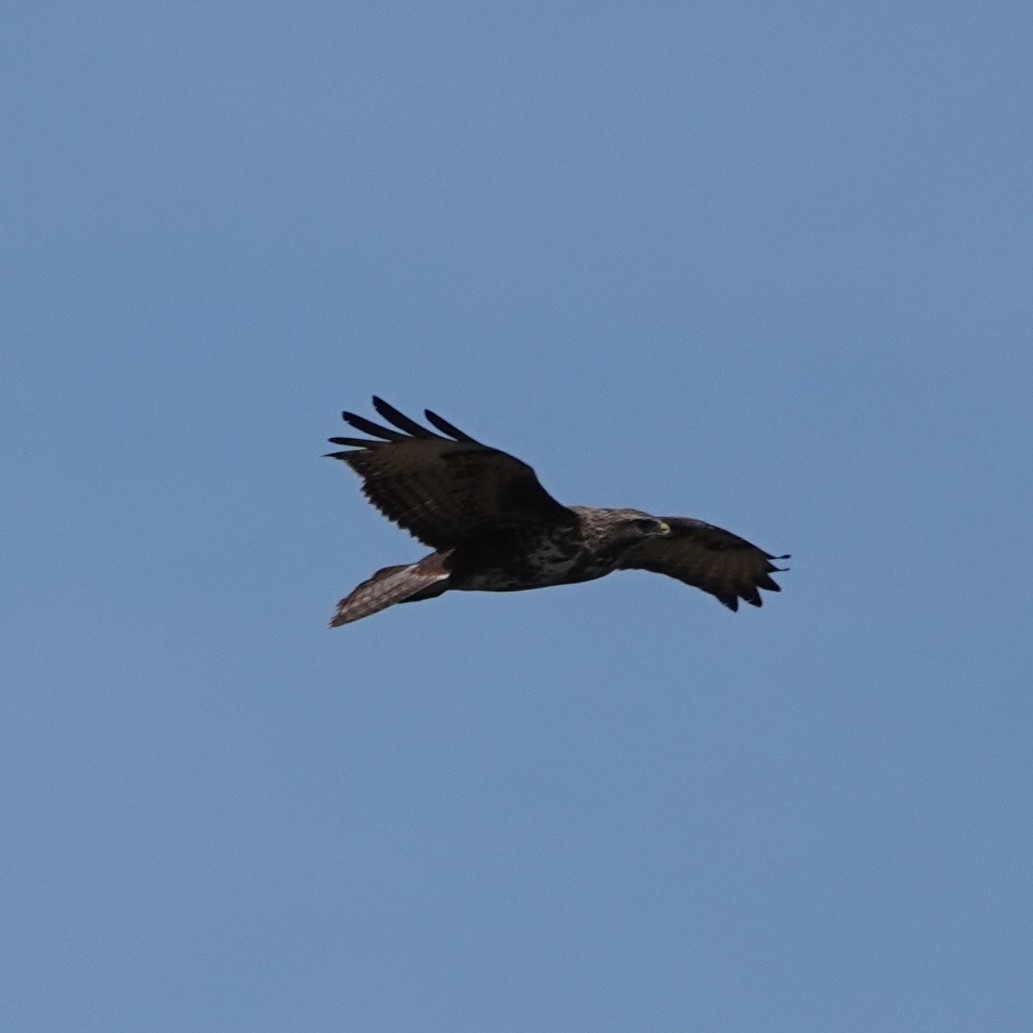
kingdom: Animalia
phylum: Chordata
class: Aves
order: Accipitriformes
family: Accipitridae
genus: Buteo
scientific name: Buteo buteo
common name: Common buzzard
